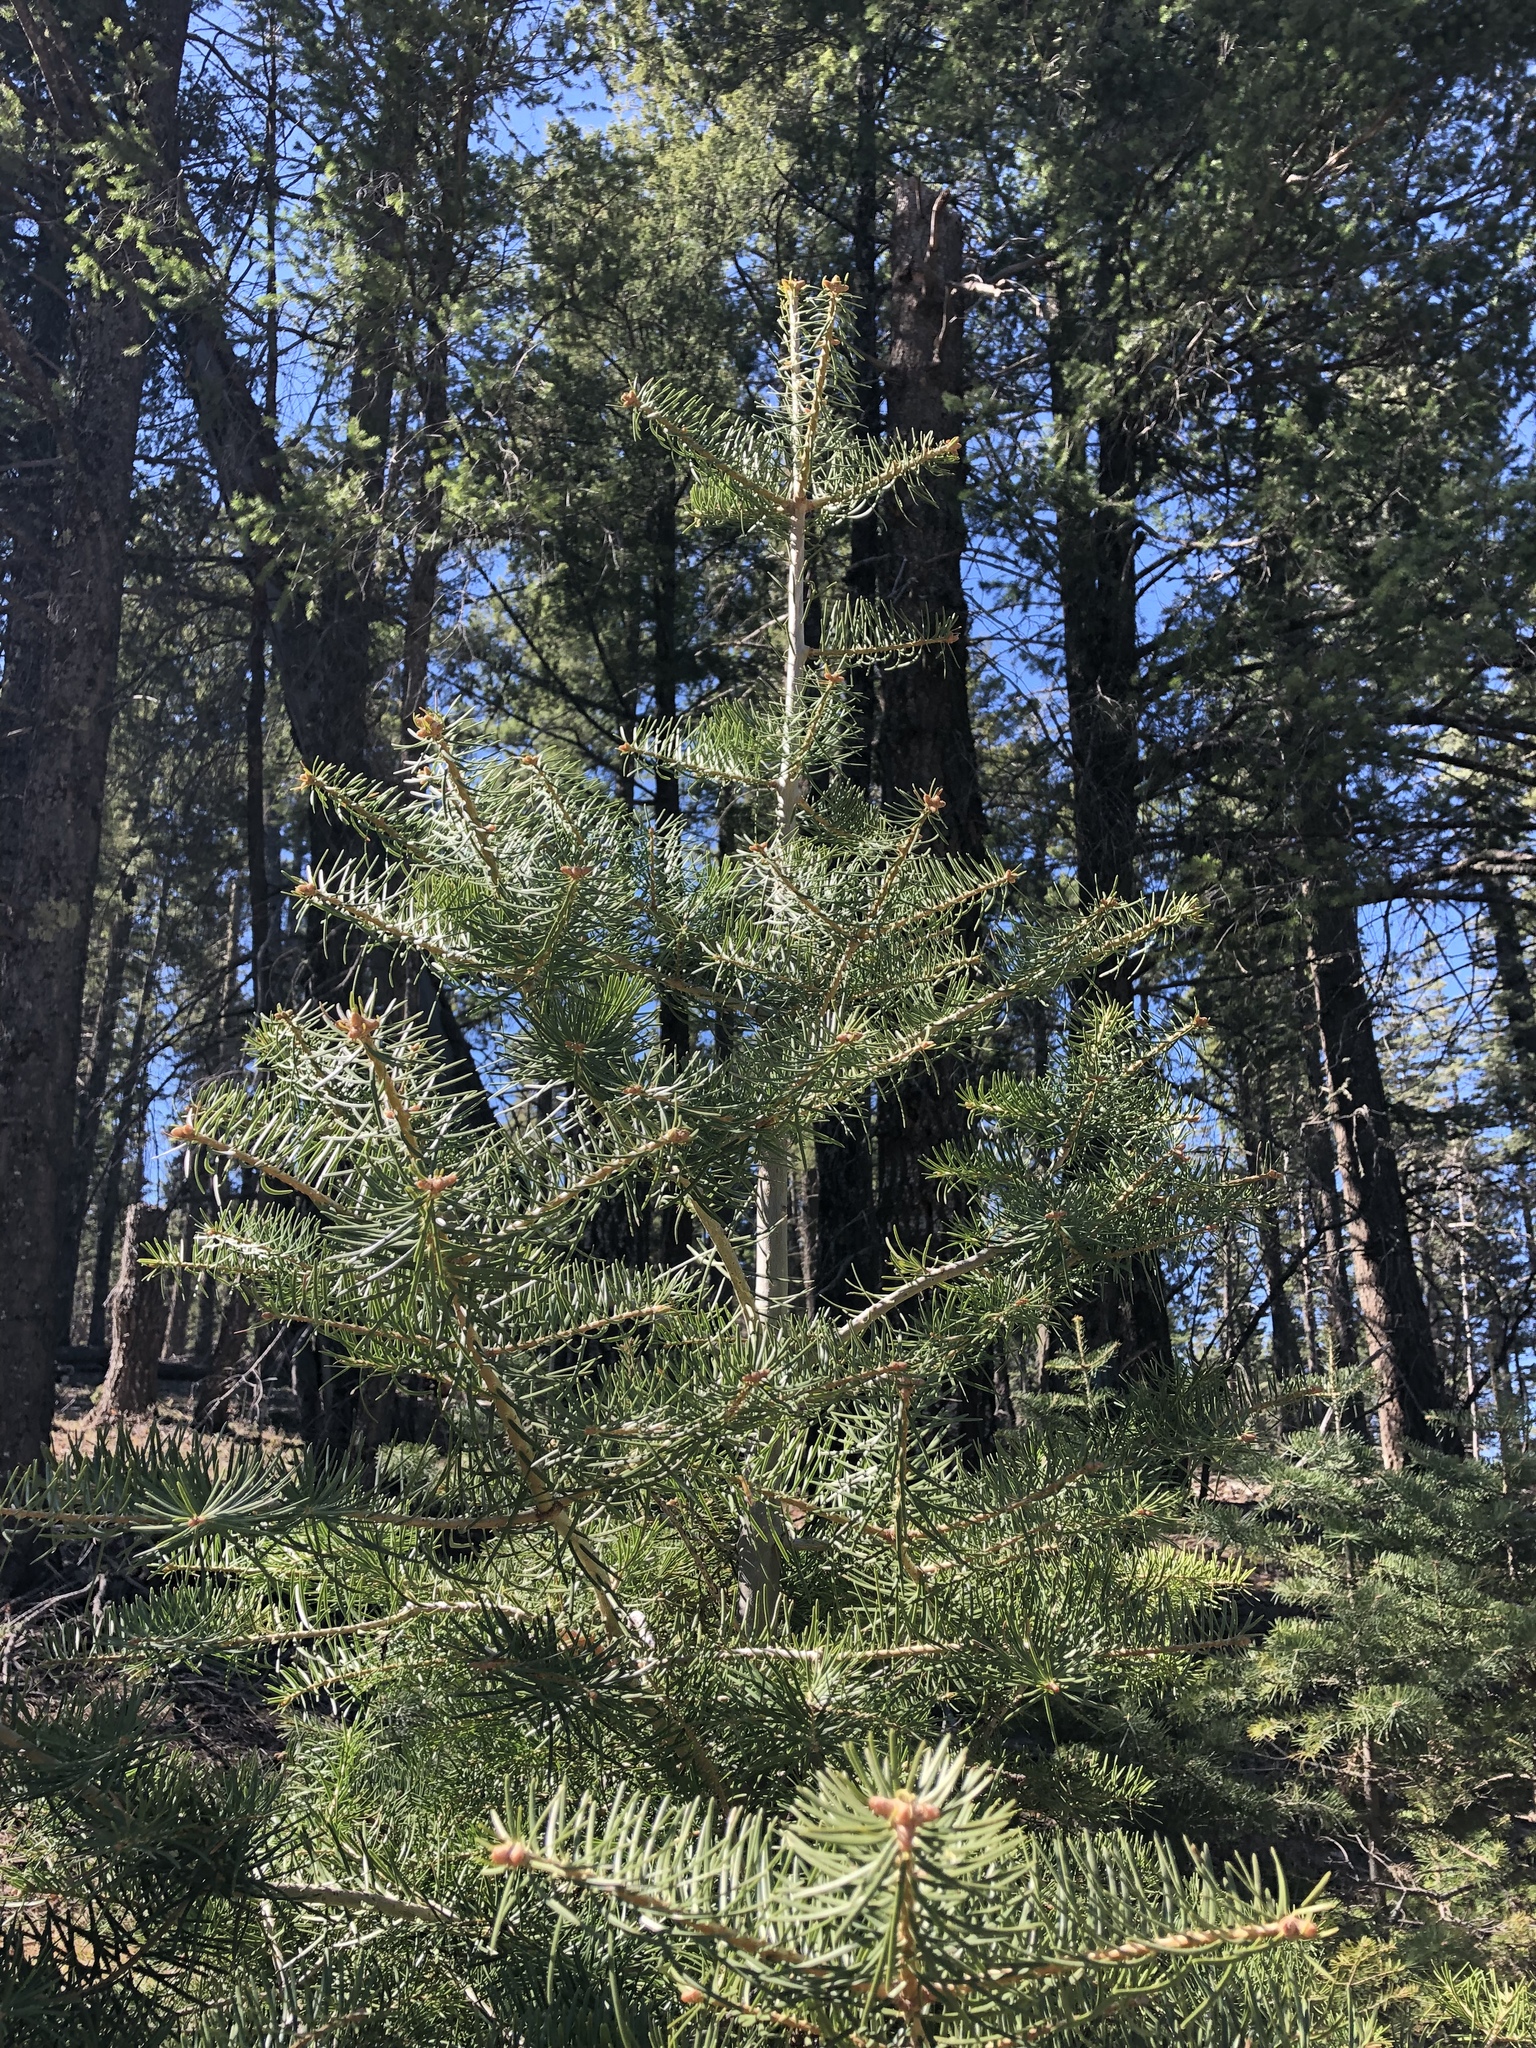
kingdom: Plantae
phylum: Tracheophyta
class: Pinopsida
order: Pinales
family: Pinaceae
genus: Pseudotsuga
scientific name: Pseudotsuga menziesii
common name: Douglas fir
